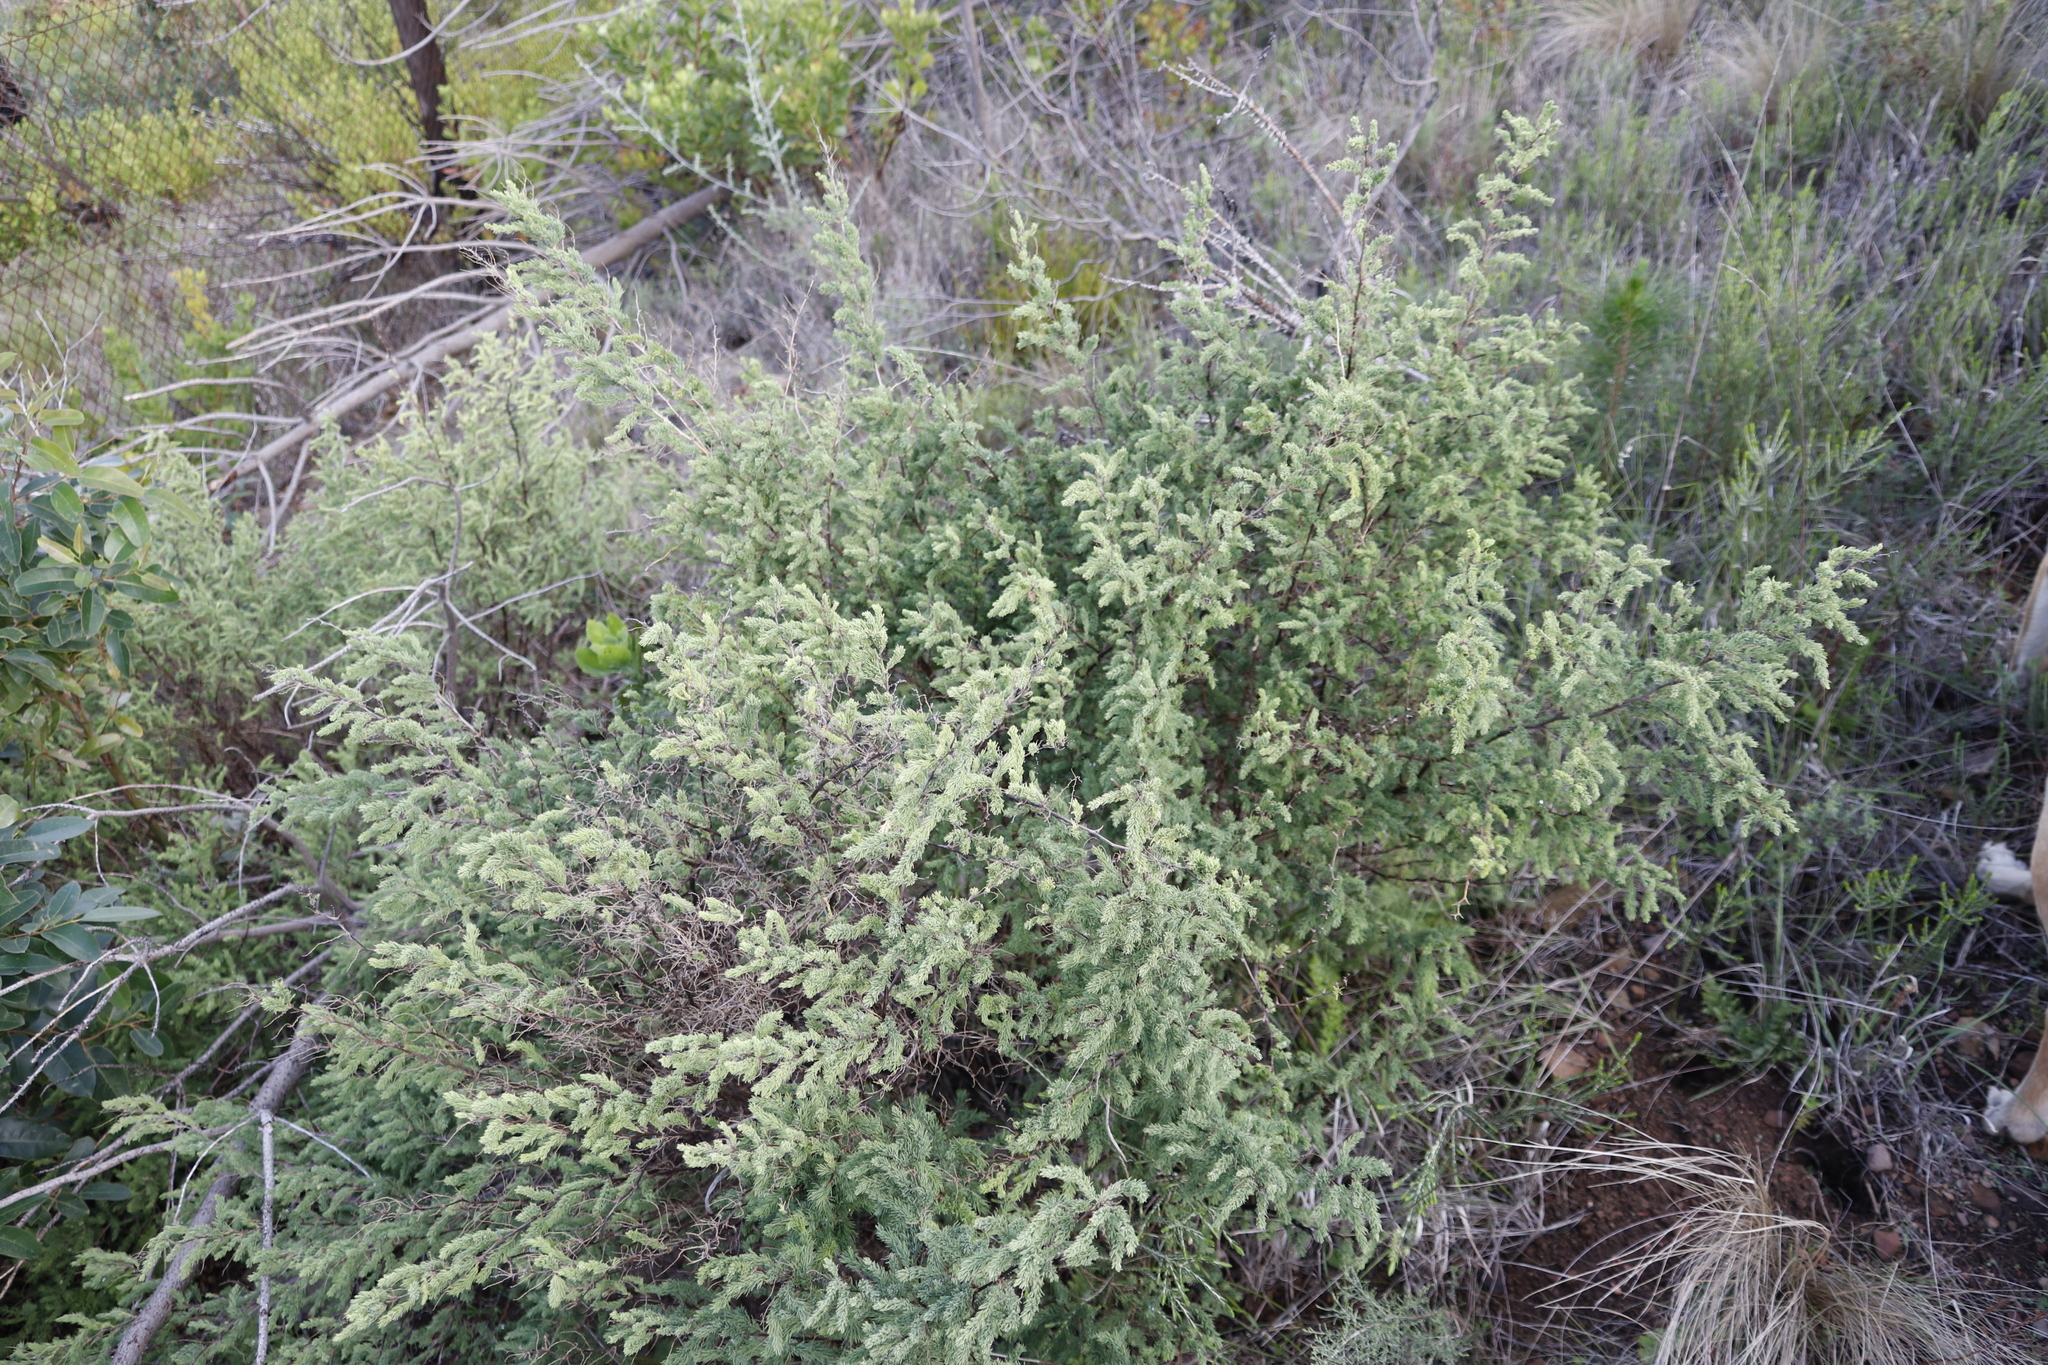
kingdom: Plantae
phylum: Tracheophyta
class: Liliopsida
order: Asparagales
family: Asparagaceae
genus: Asparagus
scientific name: Asparagus rubicundus
